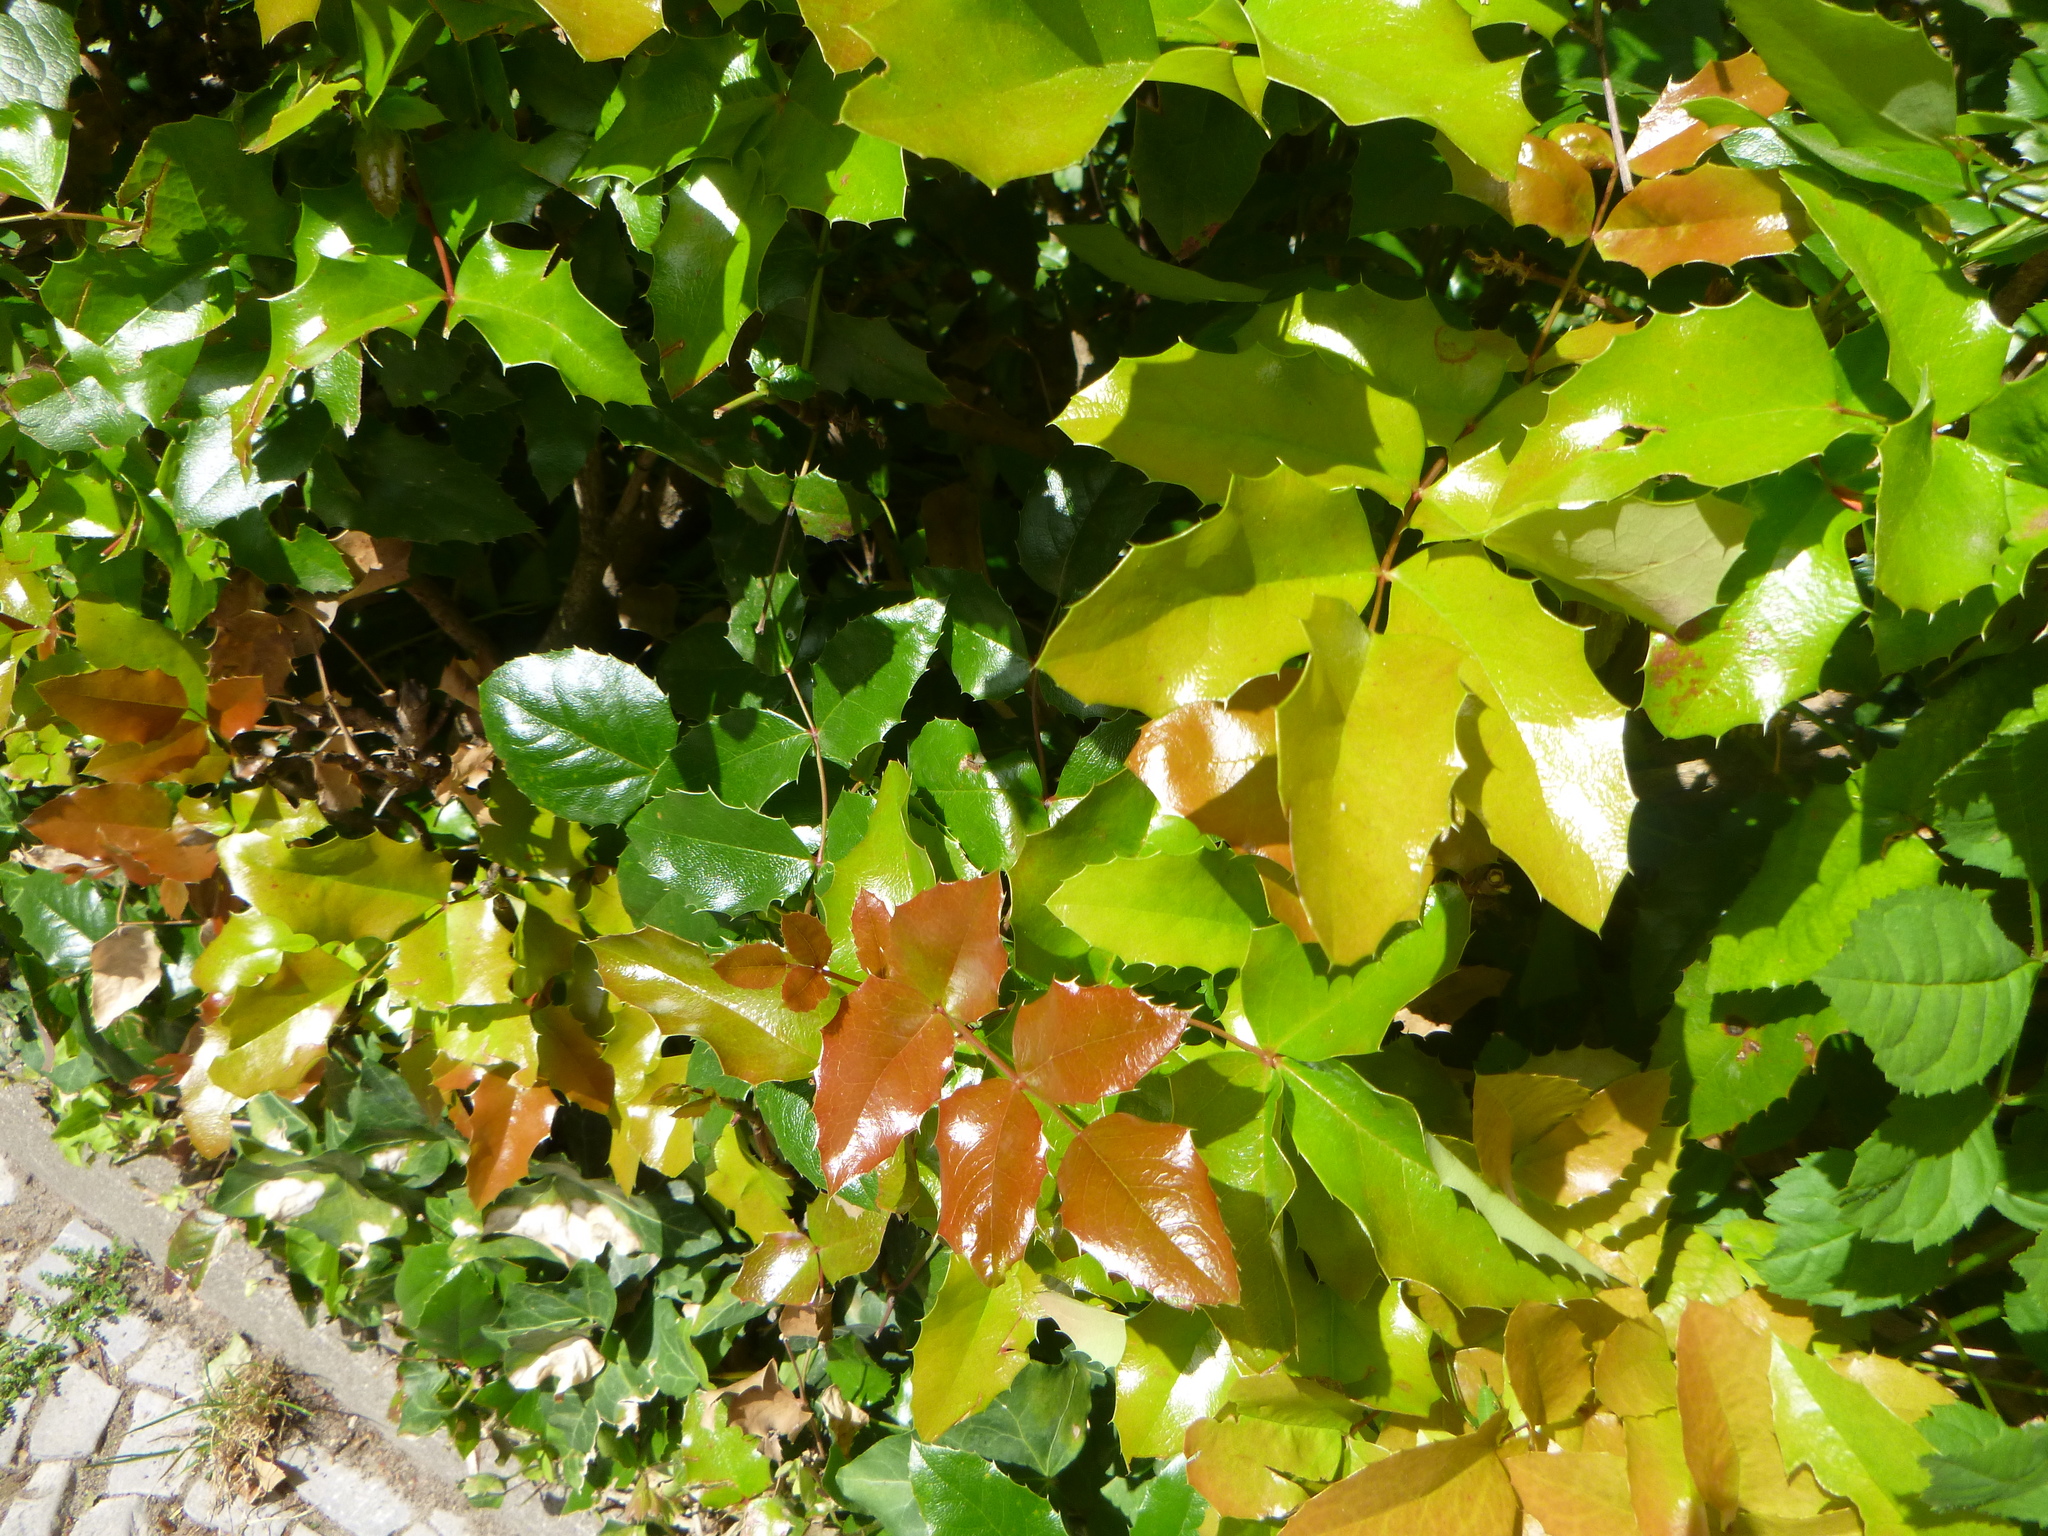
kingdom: Plantae
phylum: Tracheophyta
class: Magnoliopsida
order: Ranunculales
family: Berberidaceae
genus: Mahonia
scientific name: Mahonia aquifolium
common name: Oregon-grape
